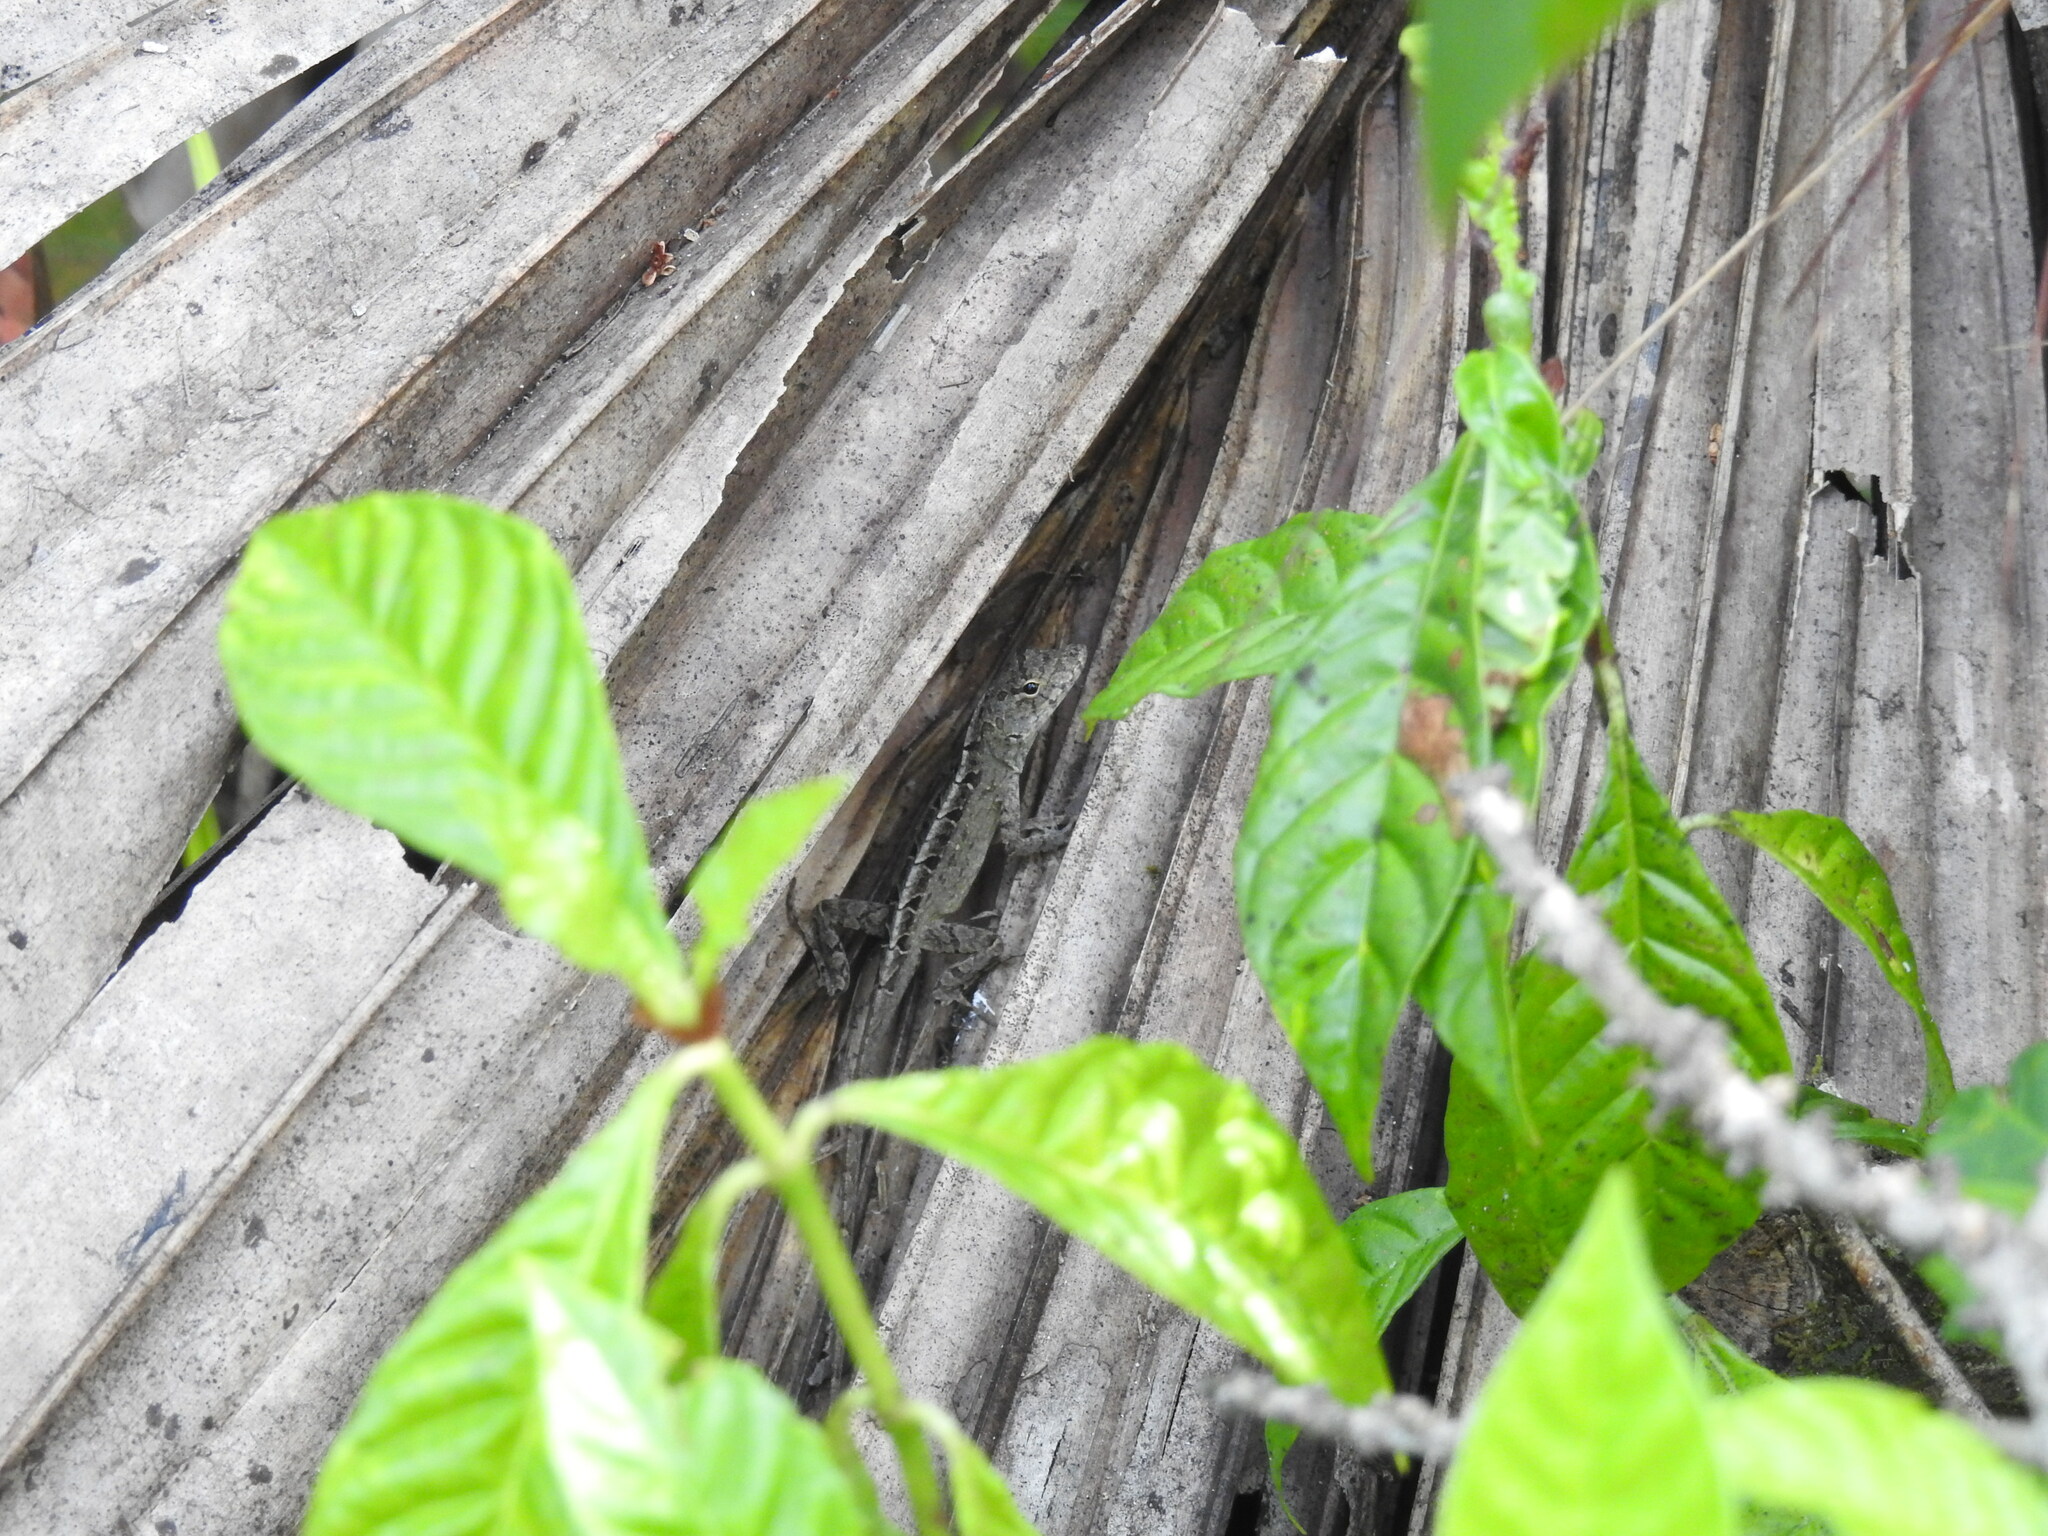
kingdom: Animalia
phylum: Chordata
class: Squamata
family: Dactyloidae
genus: Anolis
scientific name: Anolis sagrei
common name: Brown anole
